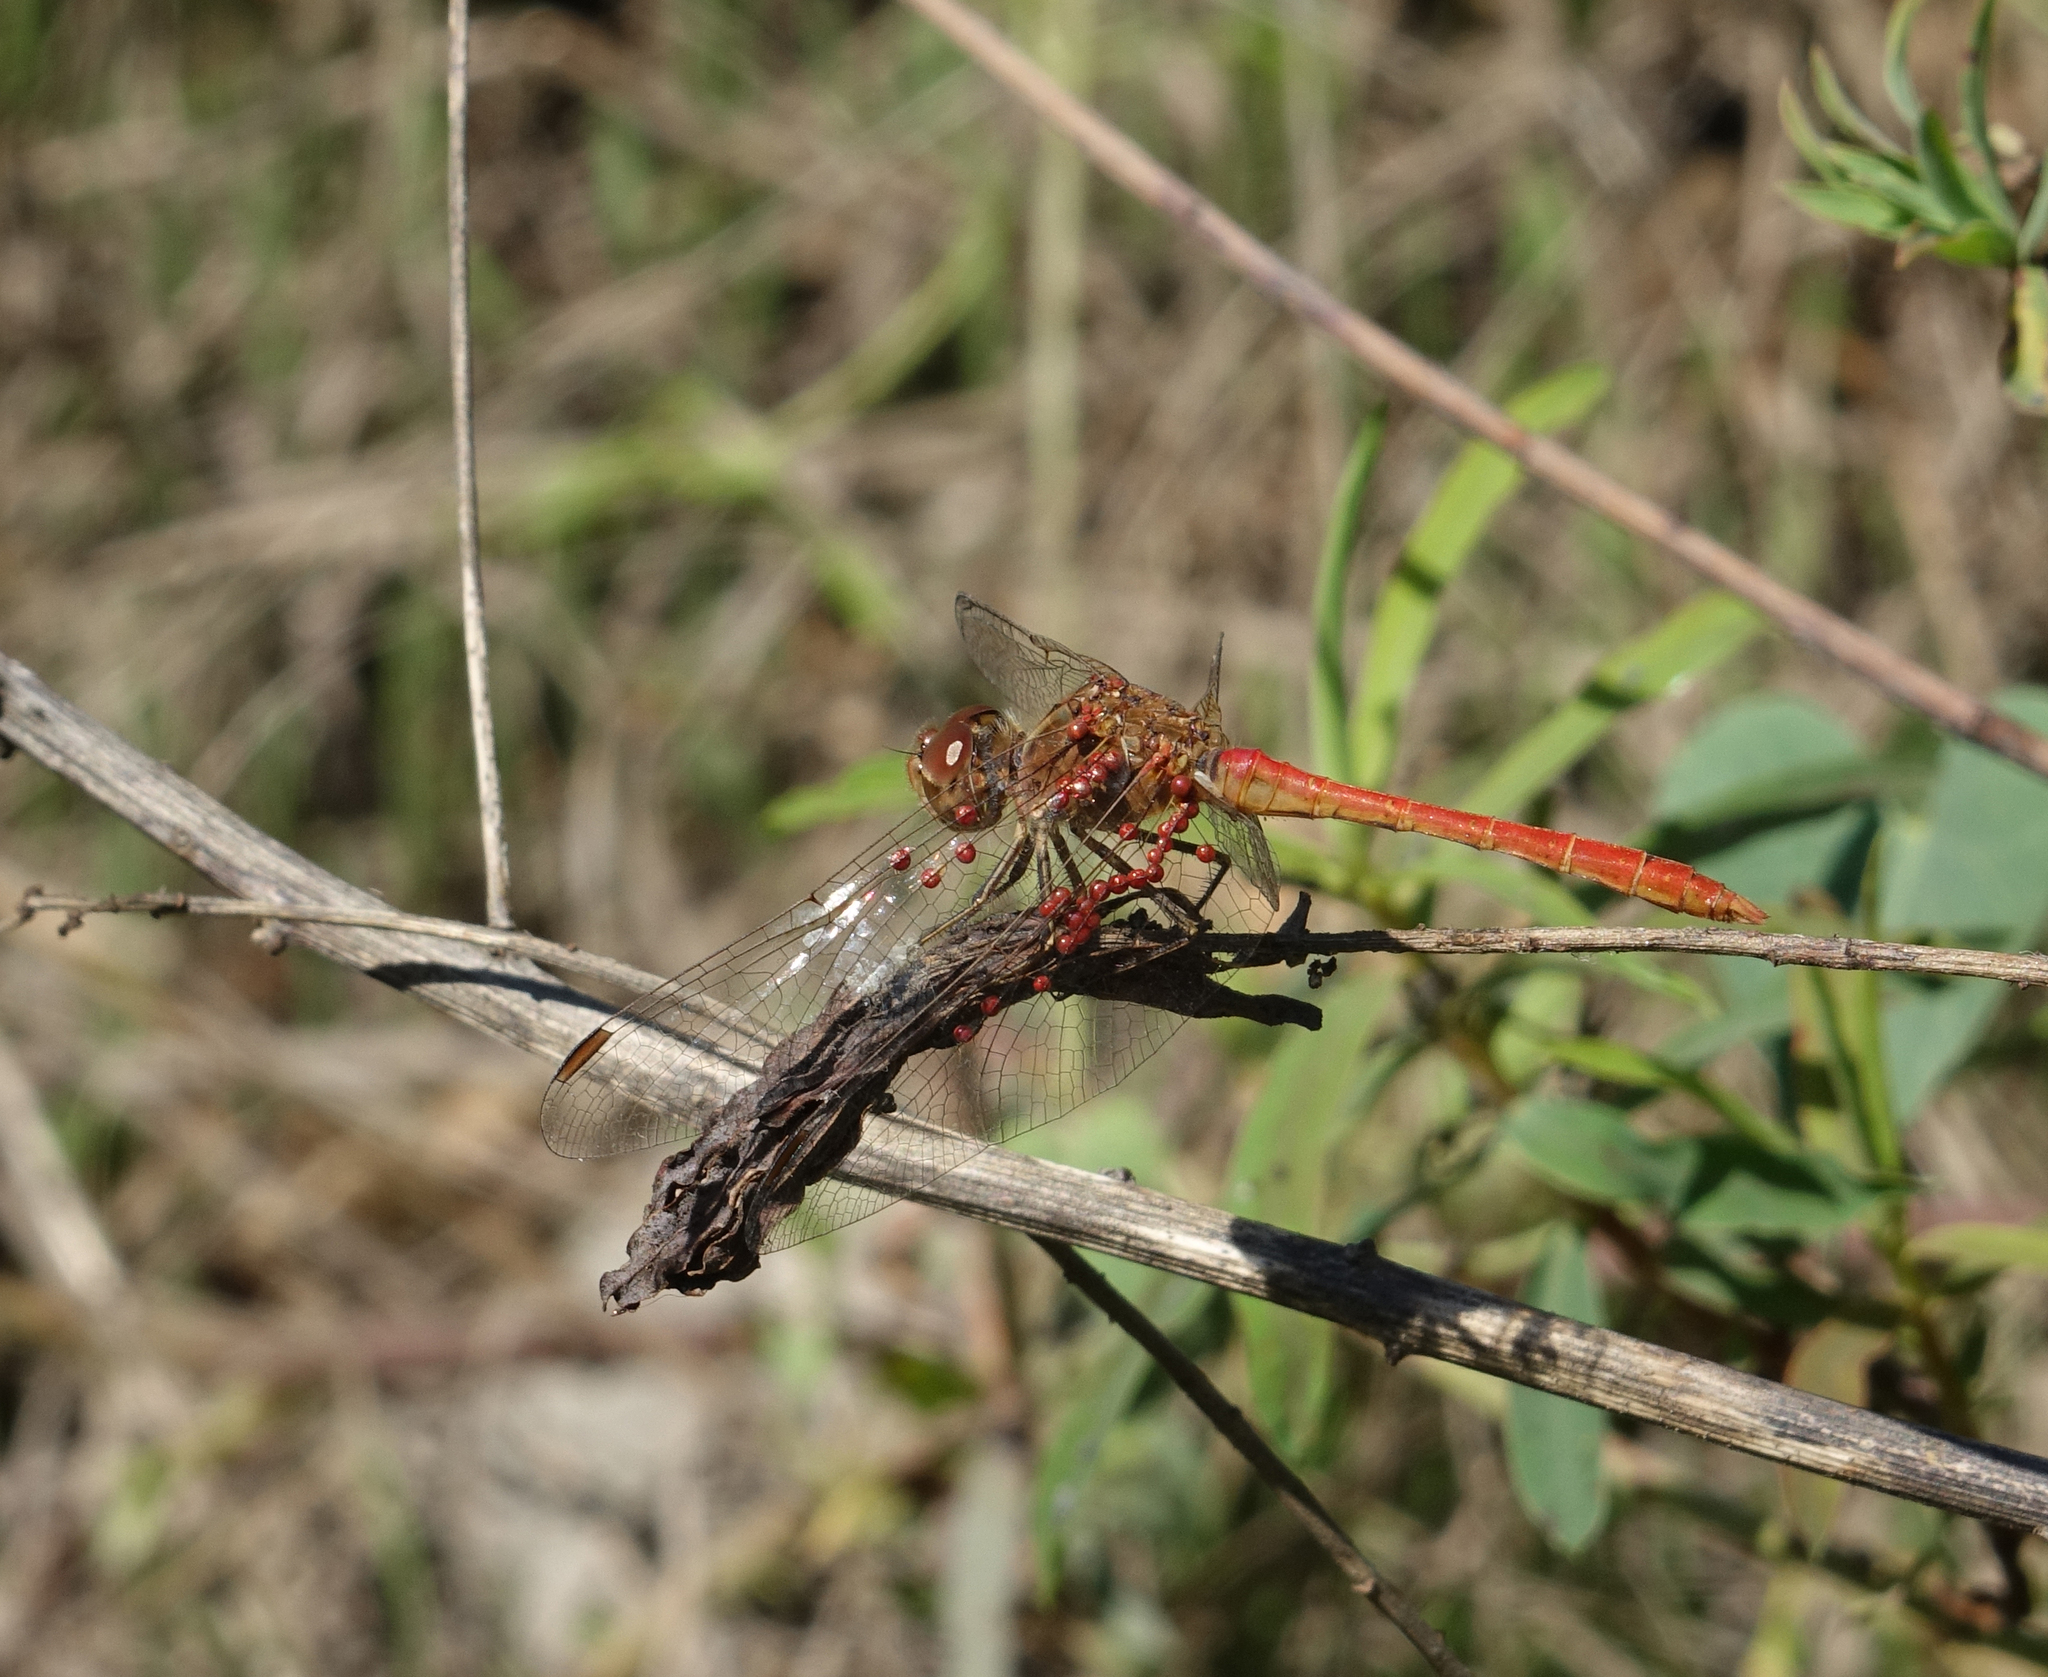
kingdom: Animalia
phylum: Arthropoda
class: Insecta
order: Odonata
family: Libellulidae
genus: Sympetrum
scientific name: Sympetrum meridionale
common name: Southern darter
